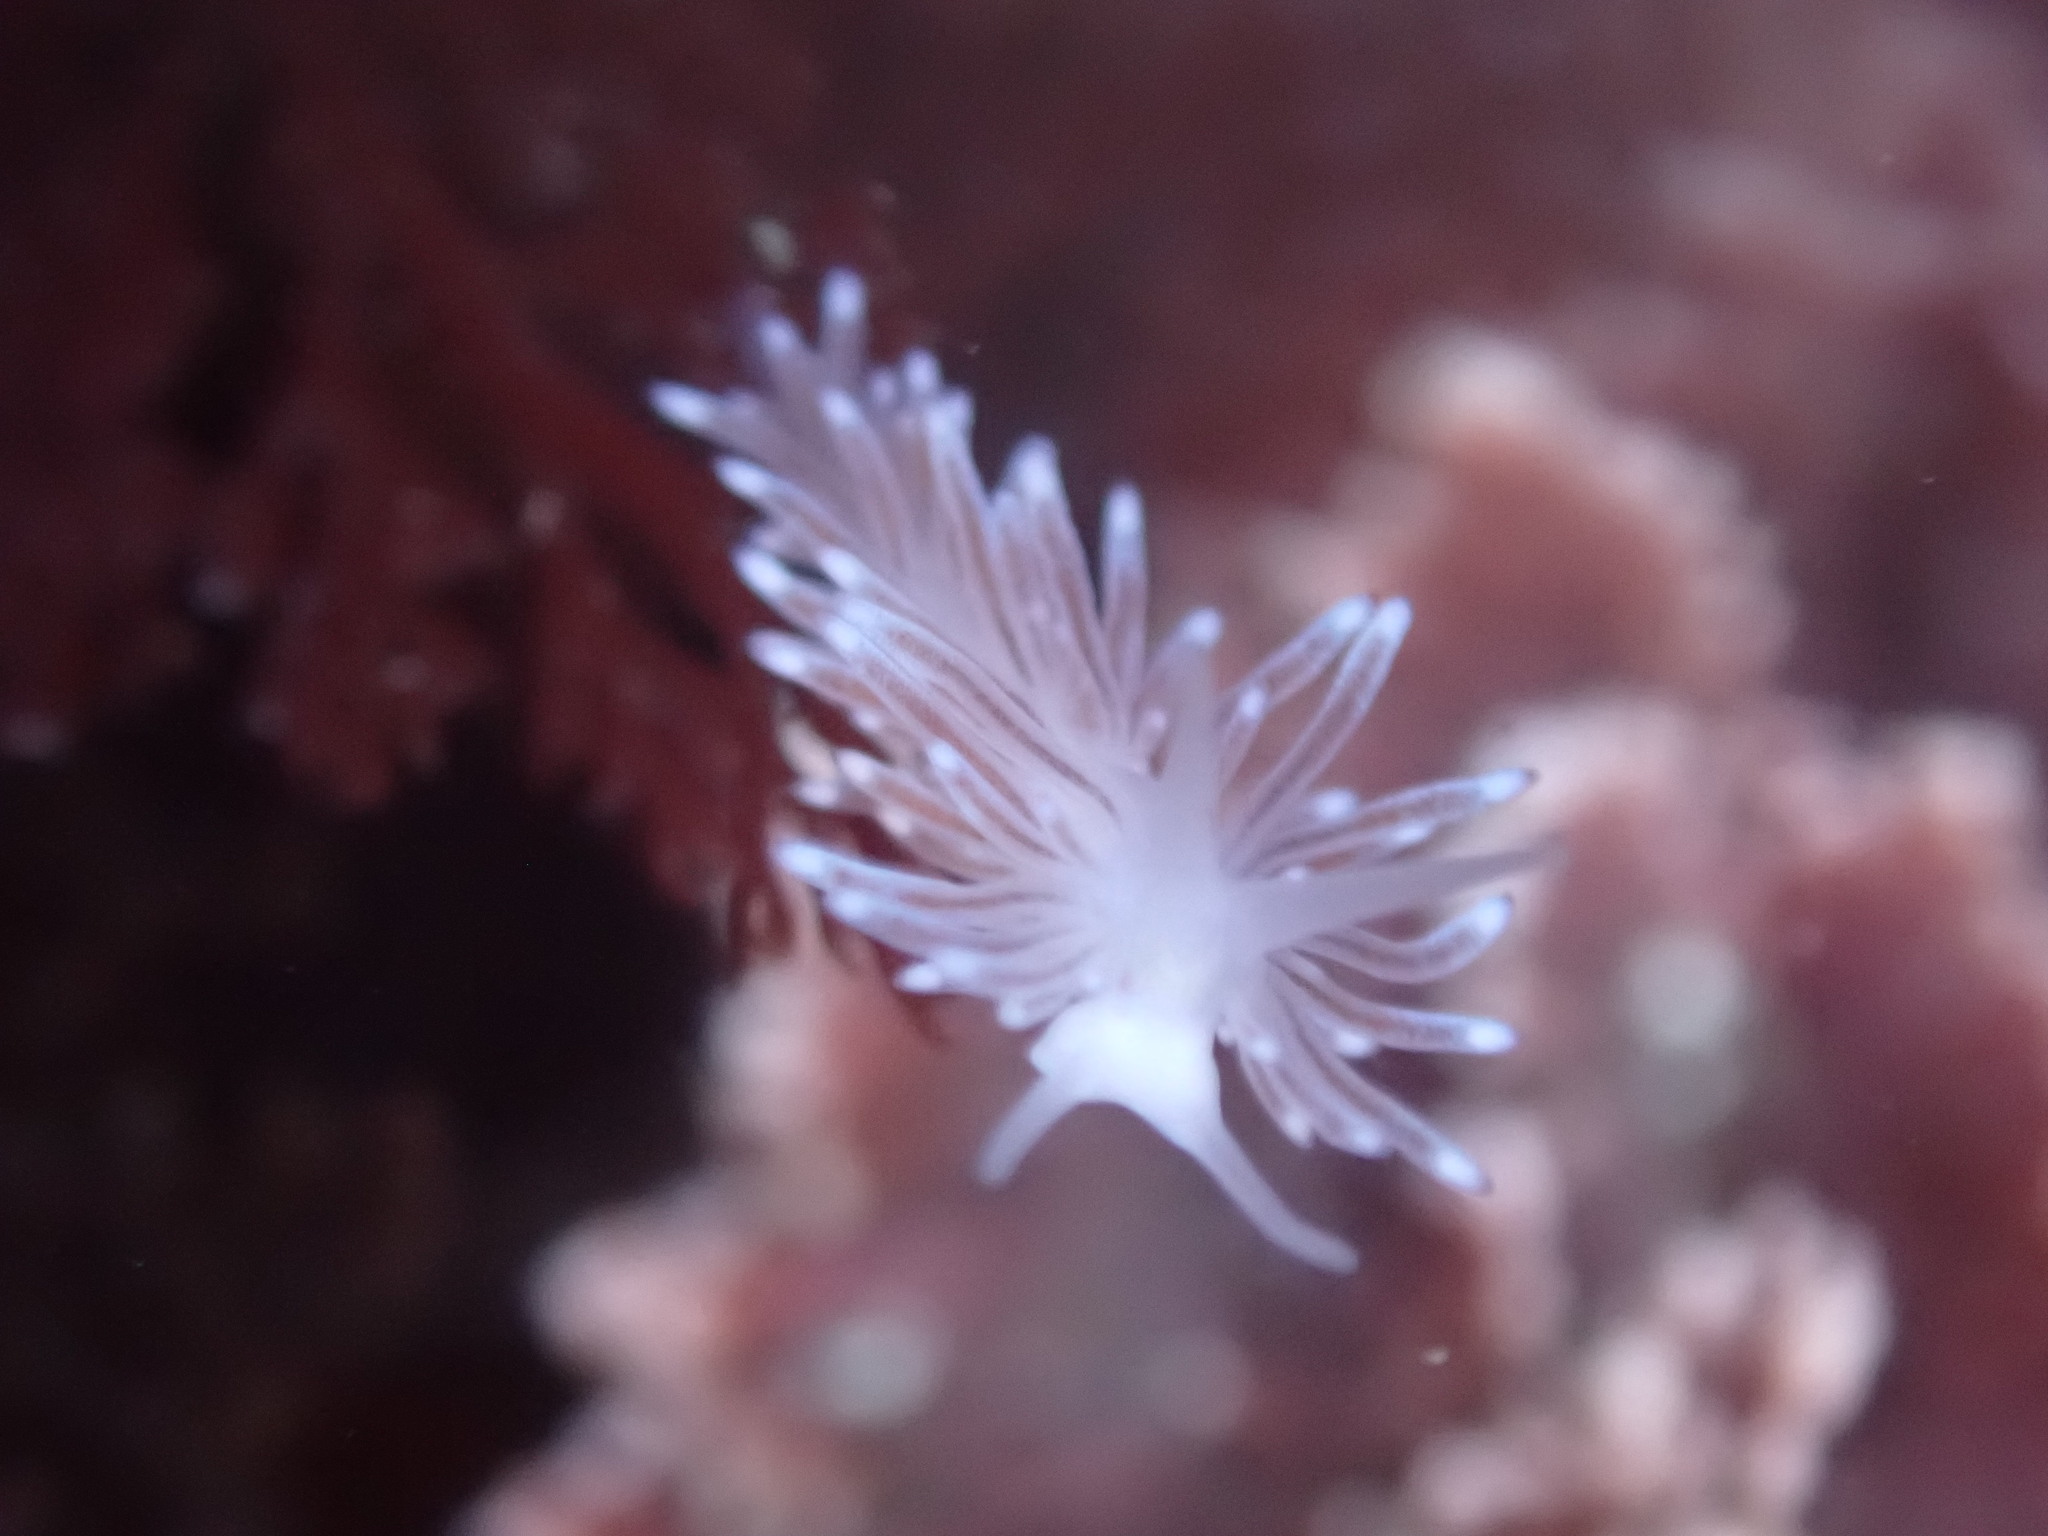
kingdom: Animalia
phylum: Mollusca
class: Gastropoda
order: Nudibranchia
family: Cuthonidae
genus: Cuthona
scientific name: Cuthona divae
